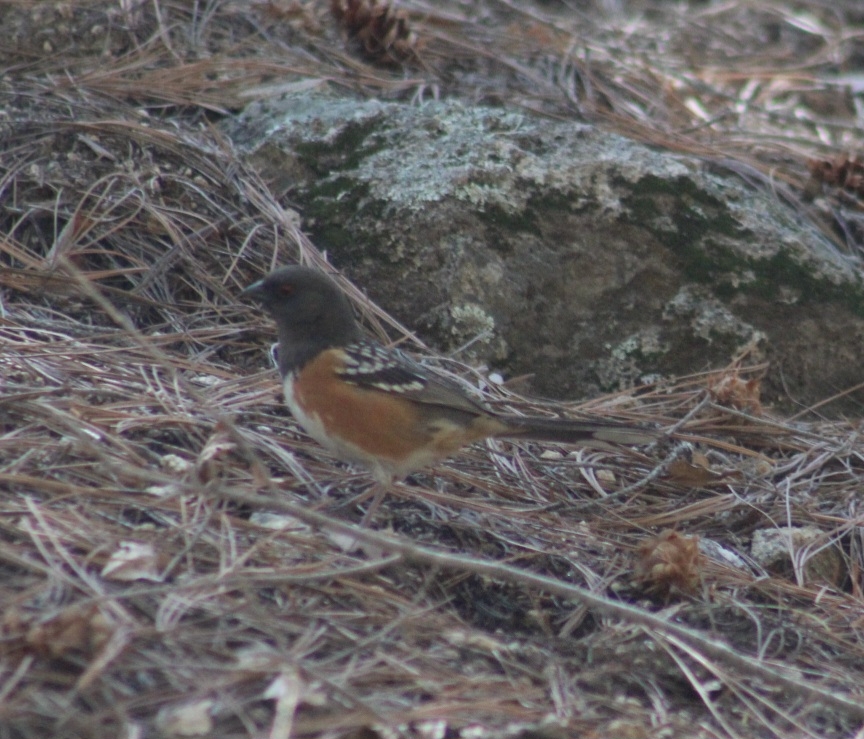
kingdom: Animalia
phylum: Chordata
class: Aves
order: Passeriformes
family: Passerellidae
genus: Pipilo
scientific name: Pipilo maculatus
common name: Spotted towhee
